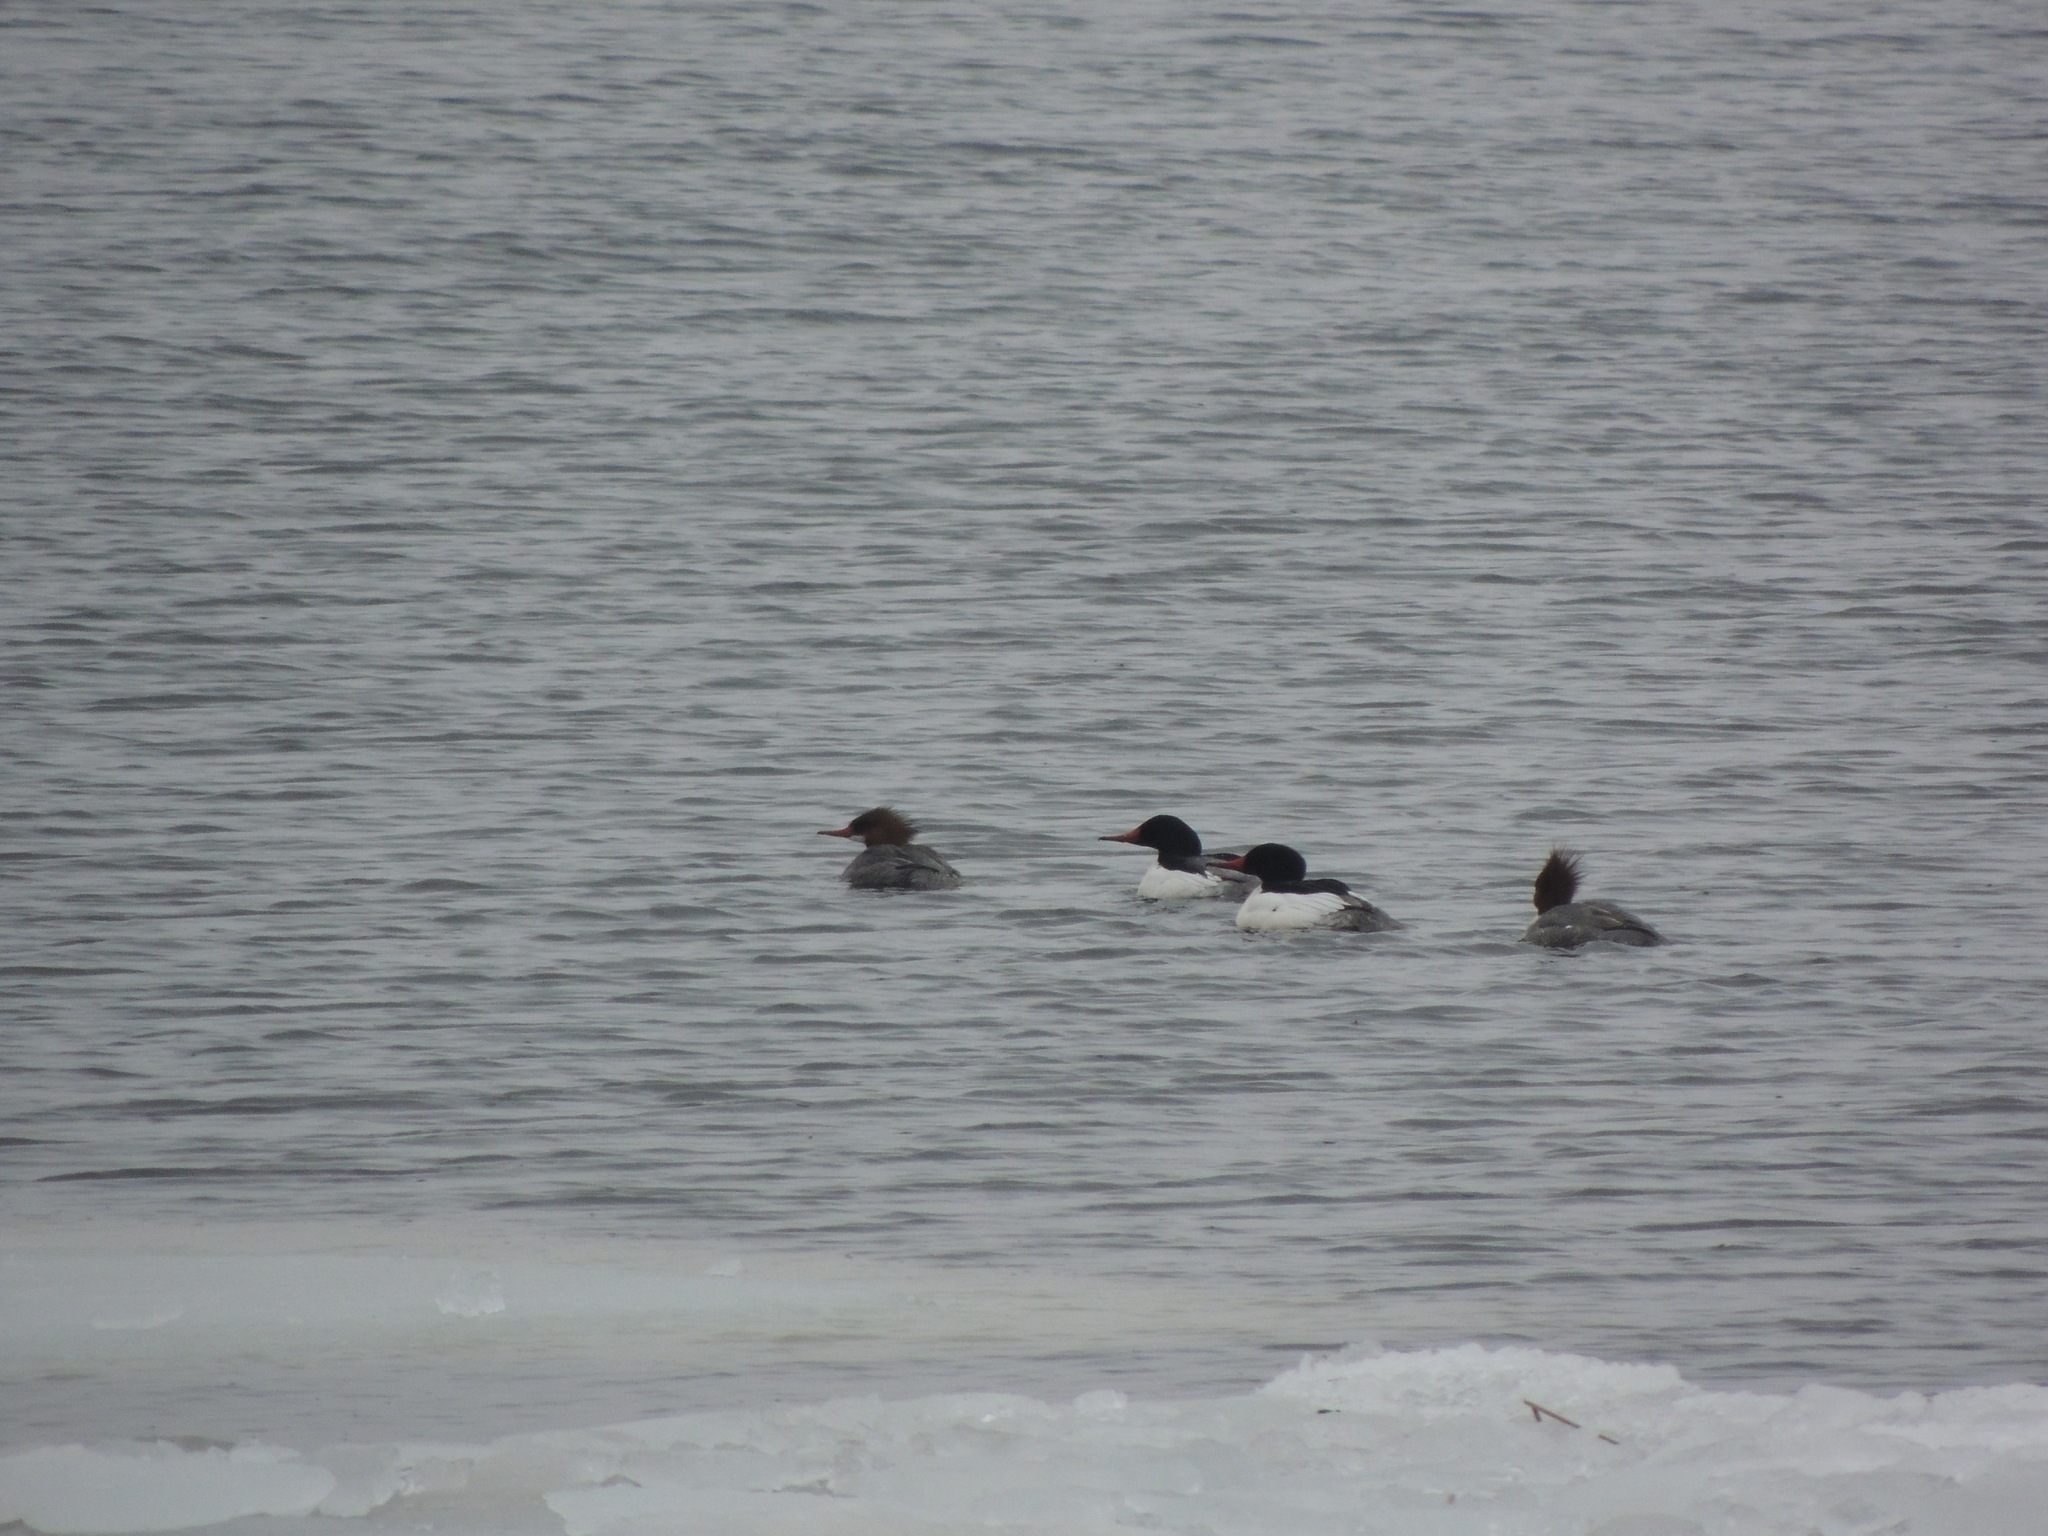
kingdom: Animalia
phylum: Chordata
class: Aves
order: Anseriformes
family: Anatidae
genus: Mergus
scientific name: Mergus merganser
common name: Common merganser
